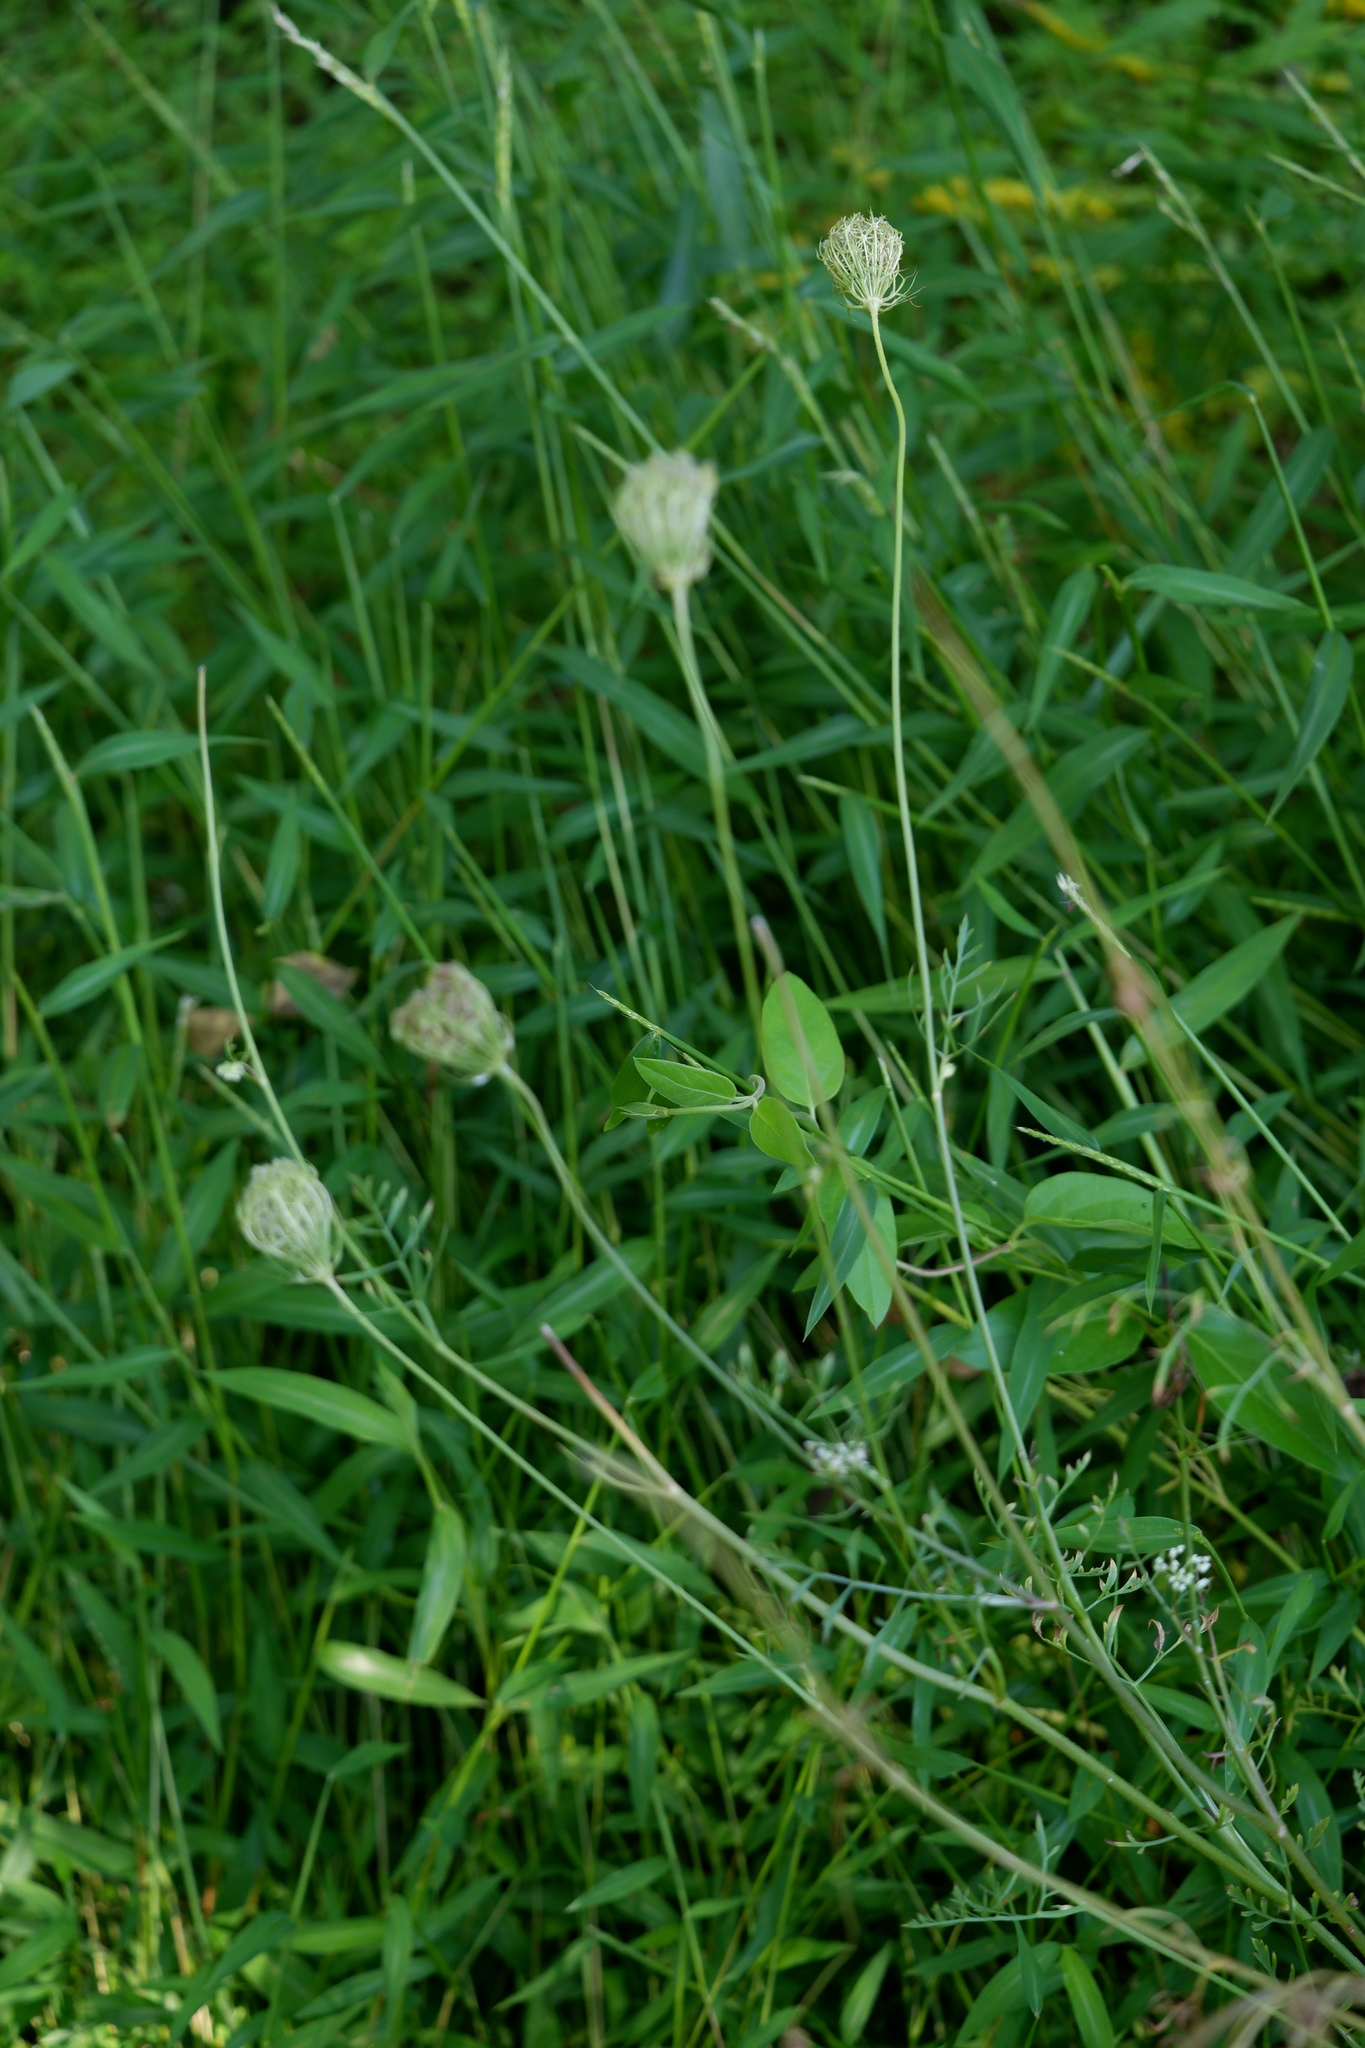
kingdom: Plantae
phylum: Tracheophyta
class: Magnoliopsida
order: Apiales
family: Apiaceae
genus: Daucus
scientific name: Daucus carota
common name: Wild carrot
